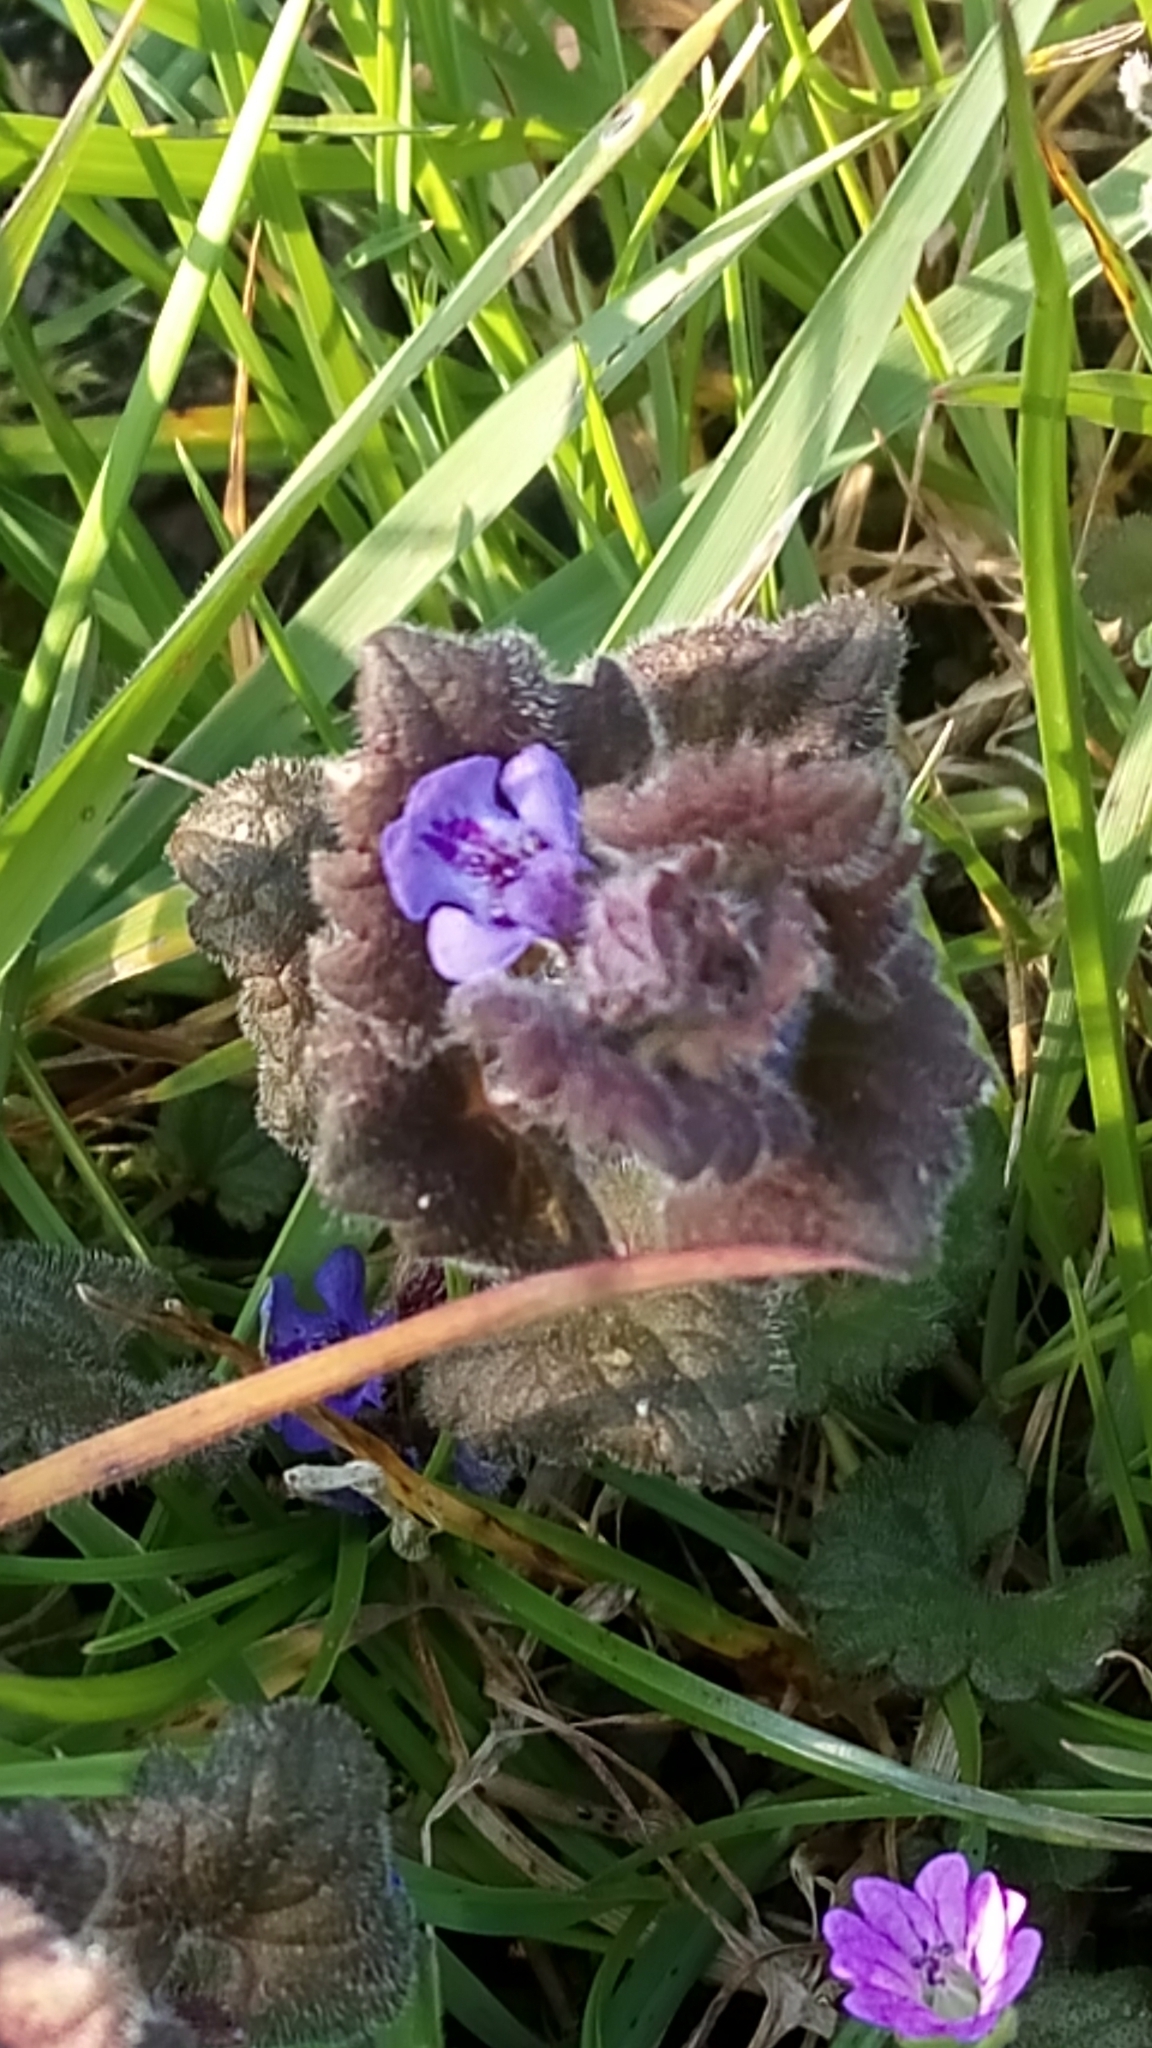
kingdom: Plantae
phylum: Tracheophyta
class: Magnoliopsida
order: Lamiales
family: Lamiaceae
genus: Glechoma
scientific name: Glechoma hederacea
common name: Ground ivy
